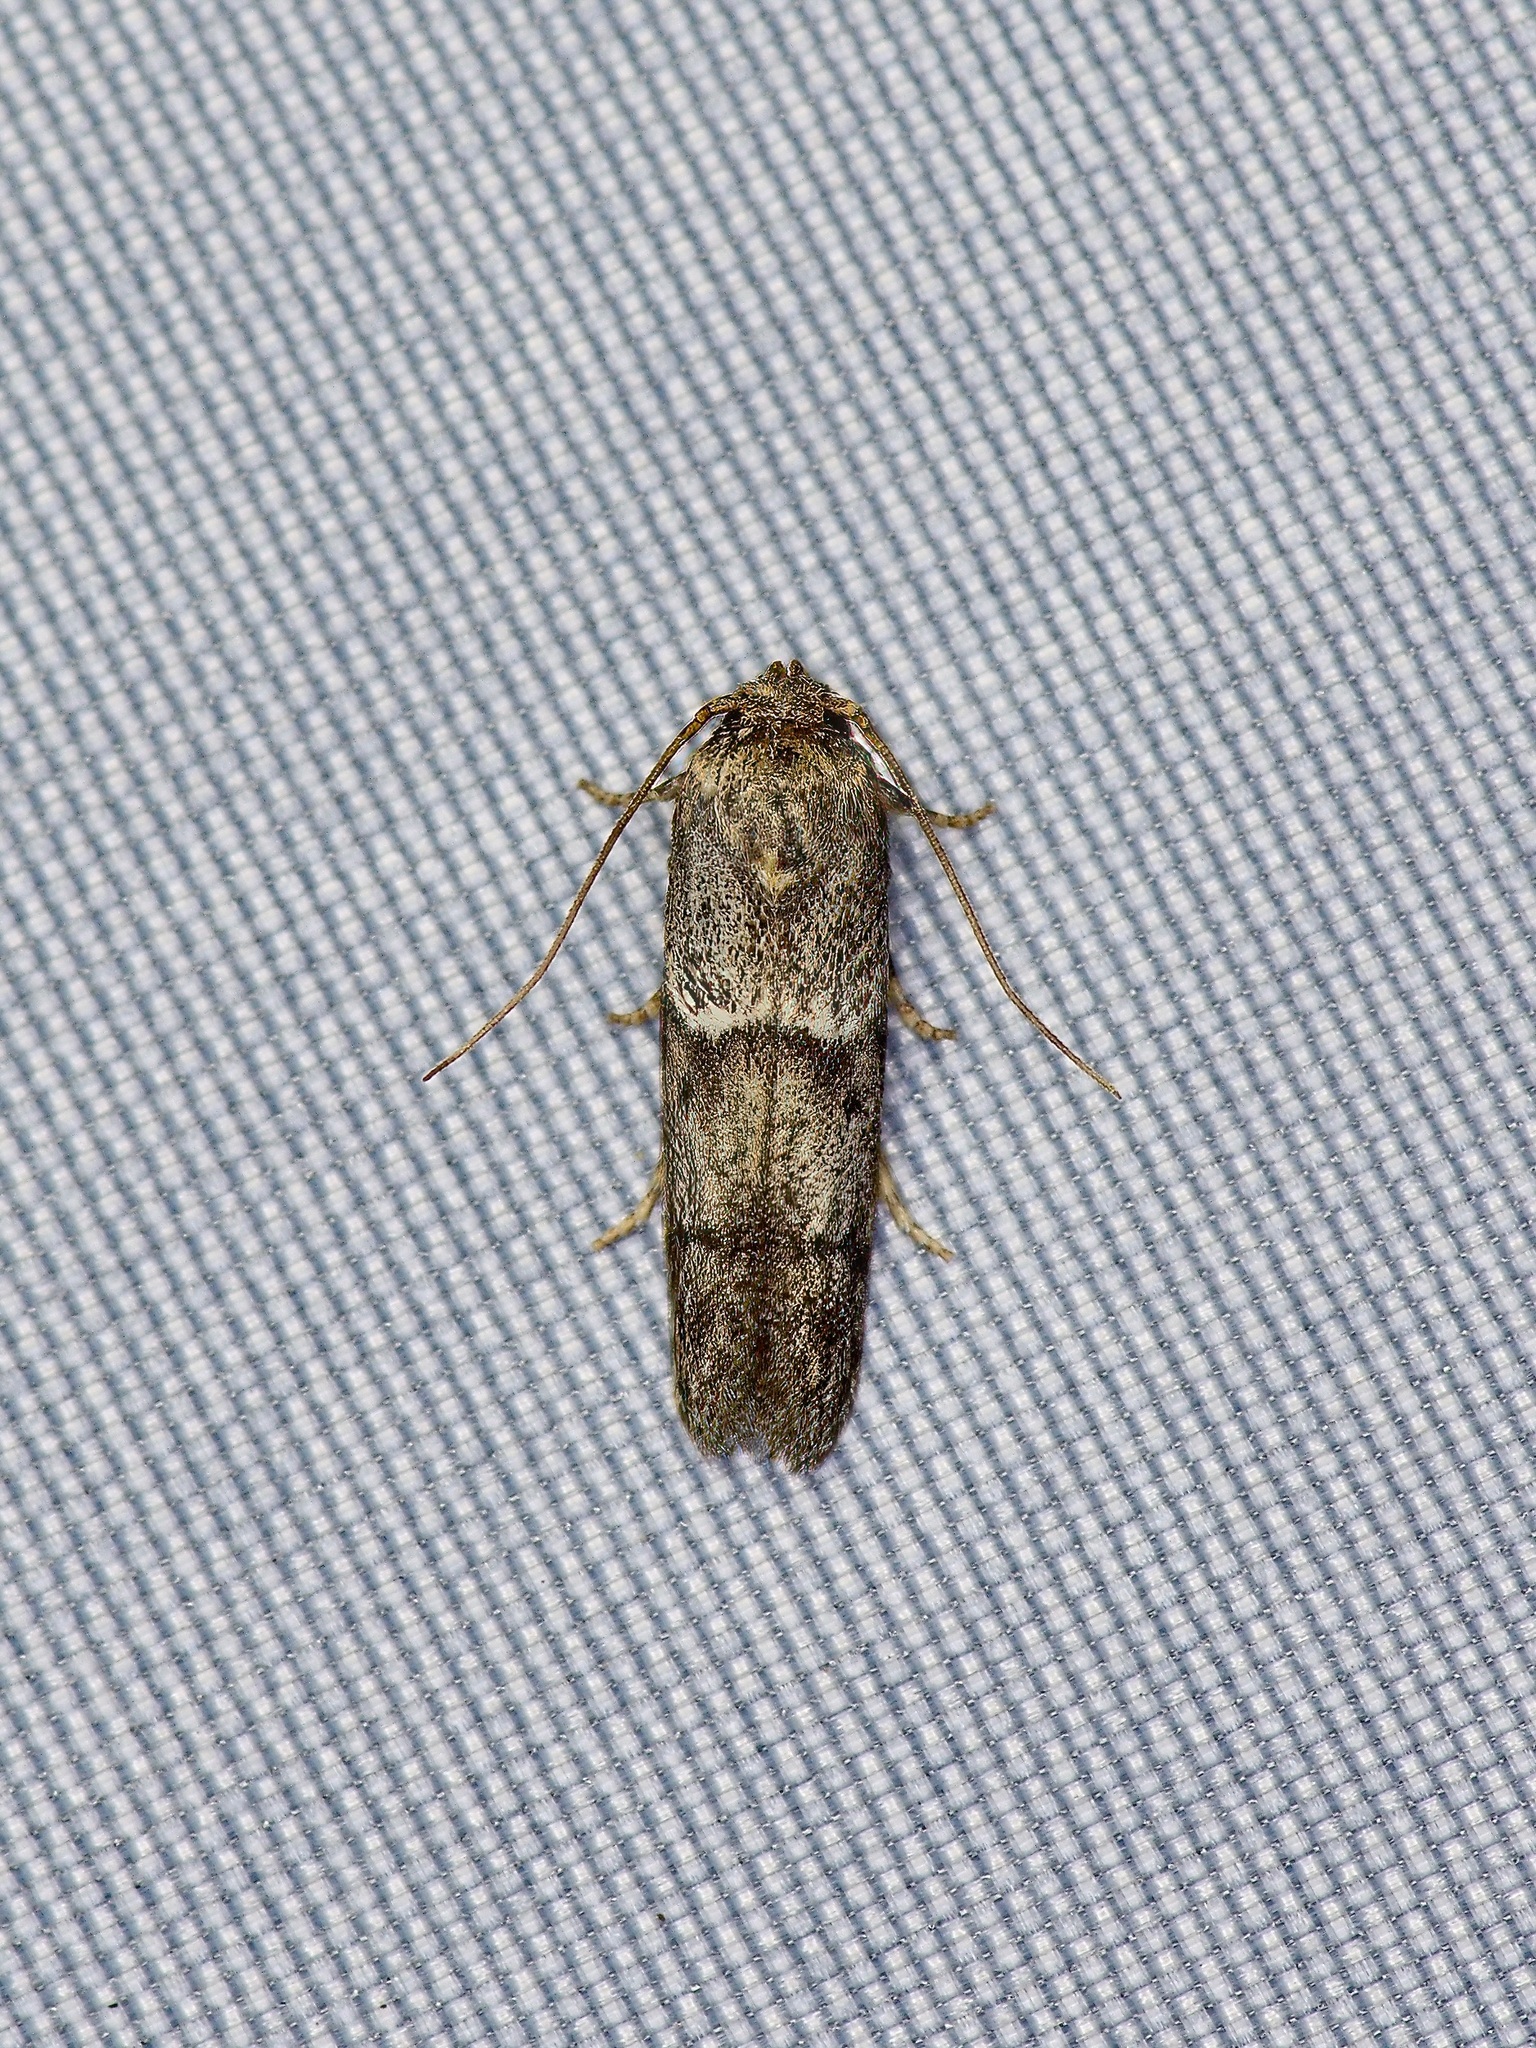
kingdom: Animalia
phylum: Arthropoda
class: Insecta
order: Lepidoptera
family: Blastobasidae
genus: Blastobasis
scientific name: Blastobasis glandulella
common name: Acorn moth
